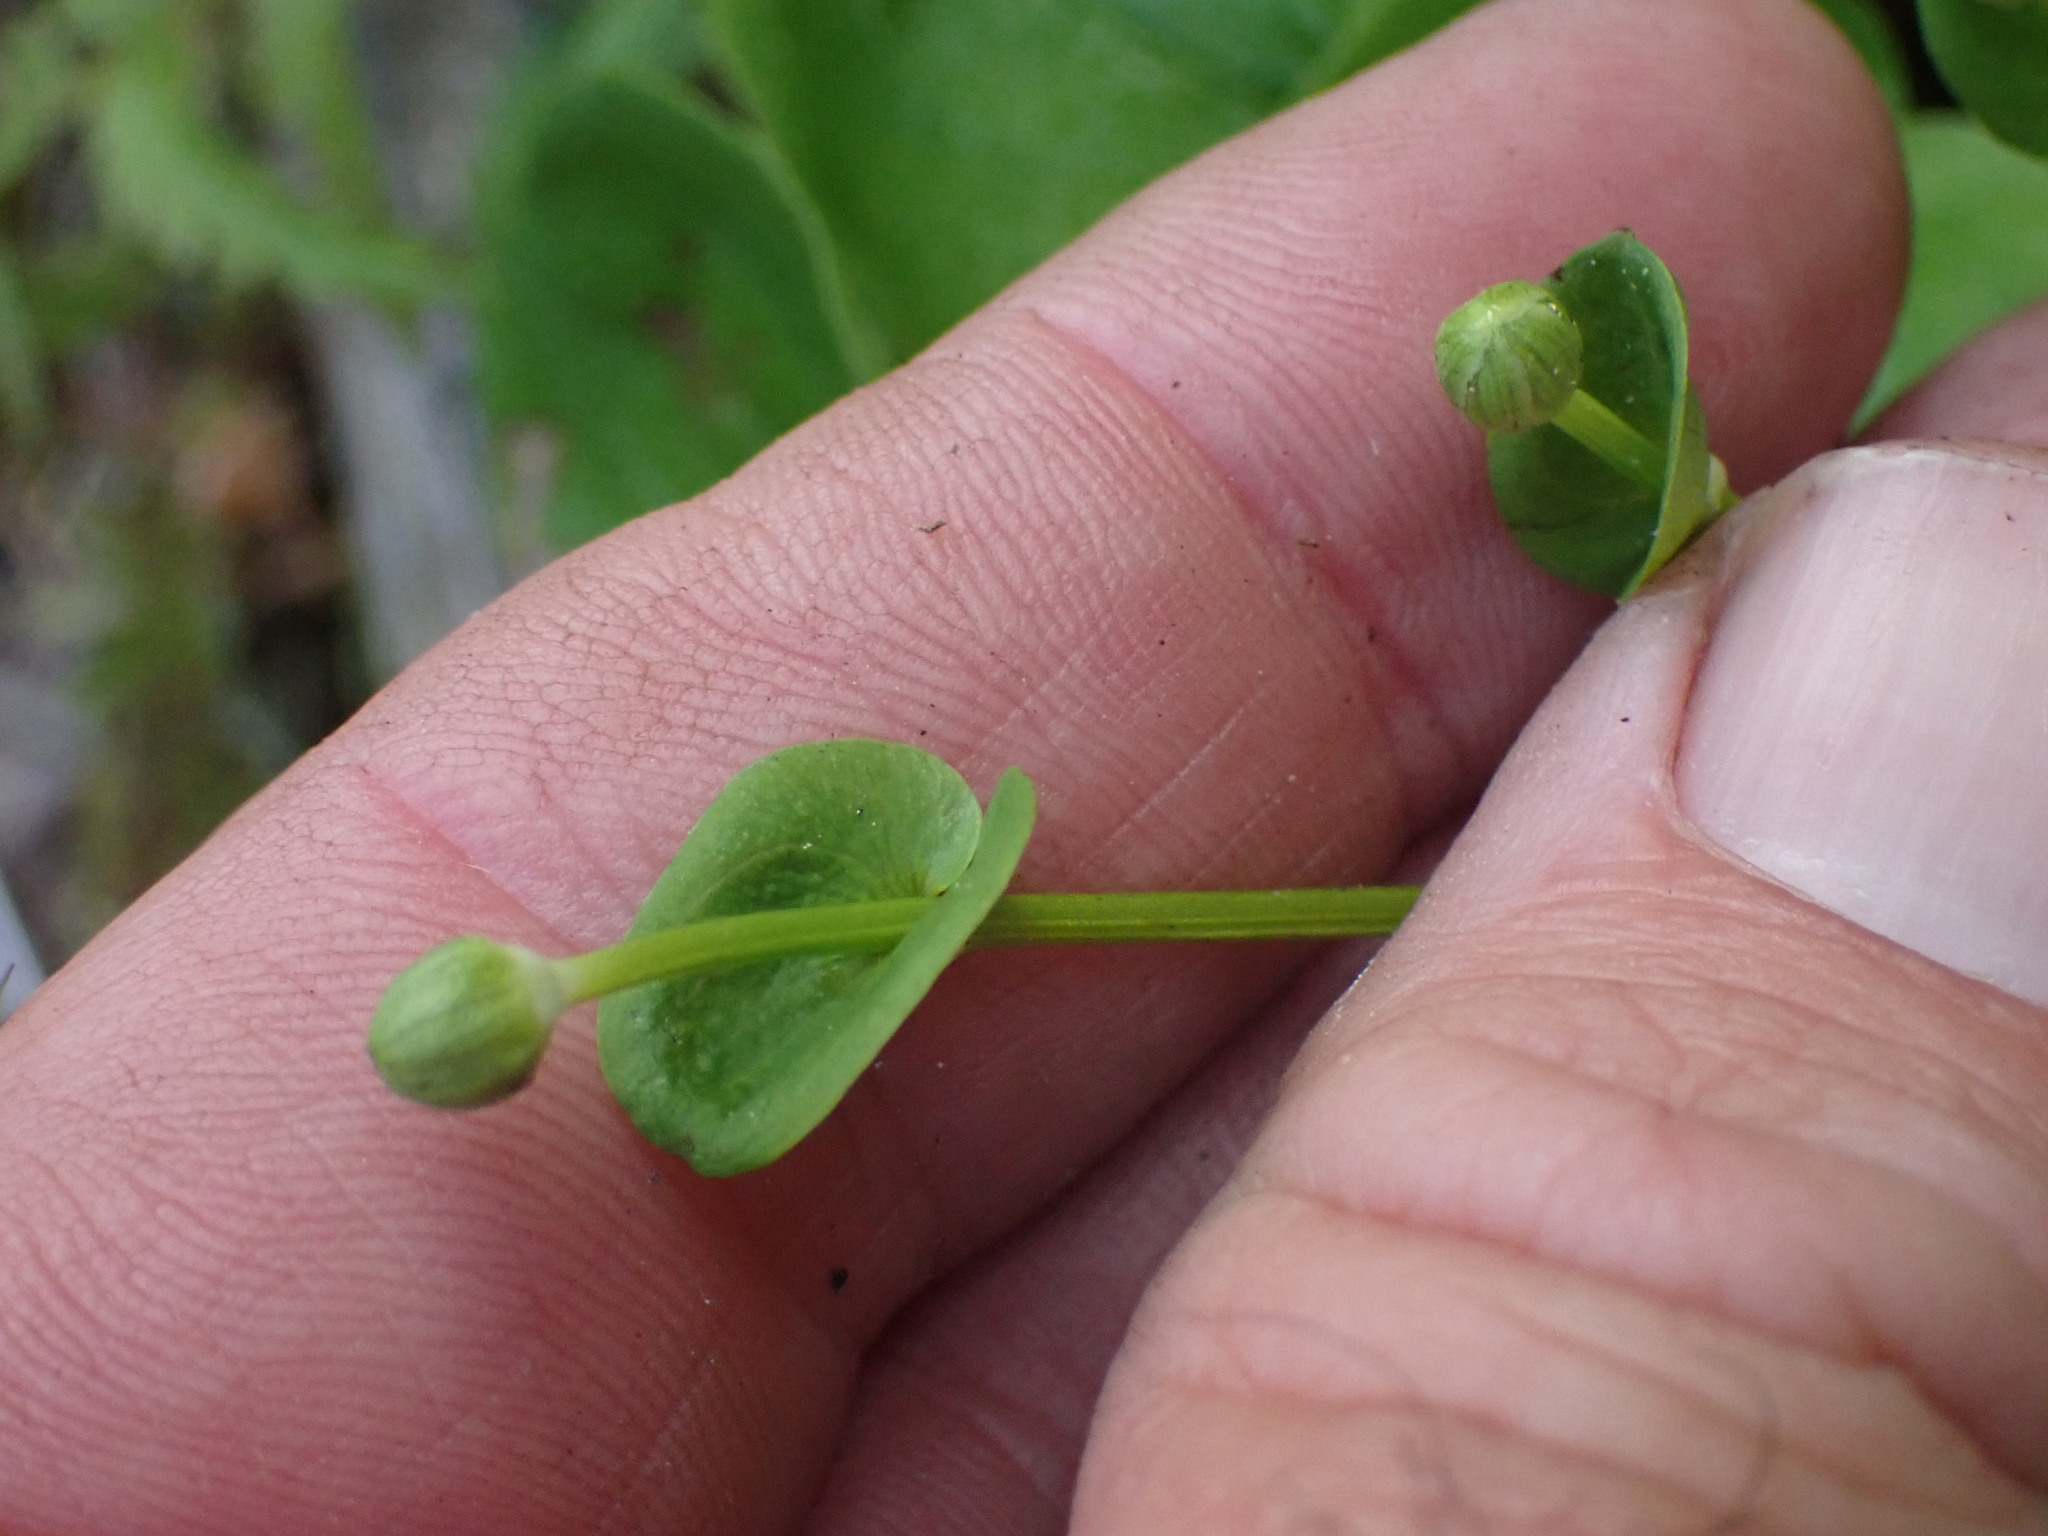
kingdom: Plantae
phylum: Tracheophyta
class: Magnoliopsida
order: Celastrales
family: Parnassiaceae
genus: Parnassia
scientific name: Parnassia fimbriata
